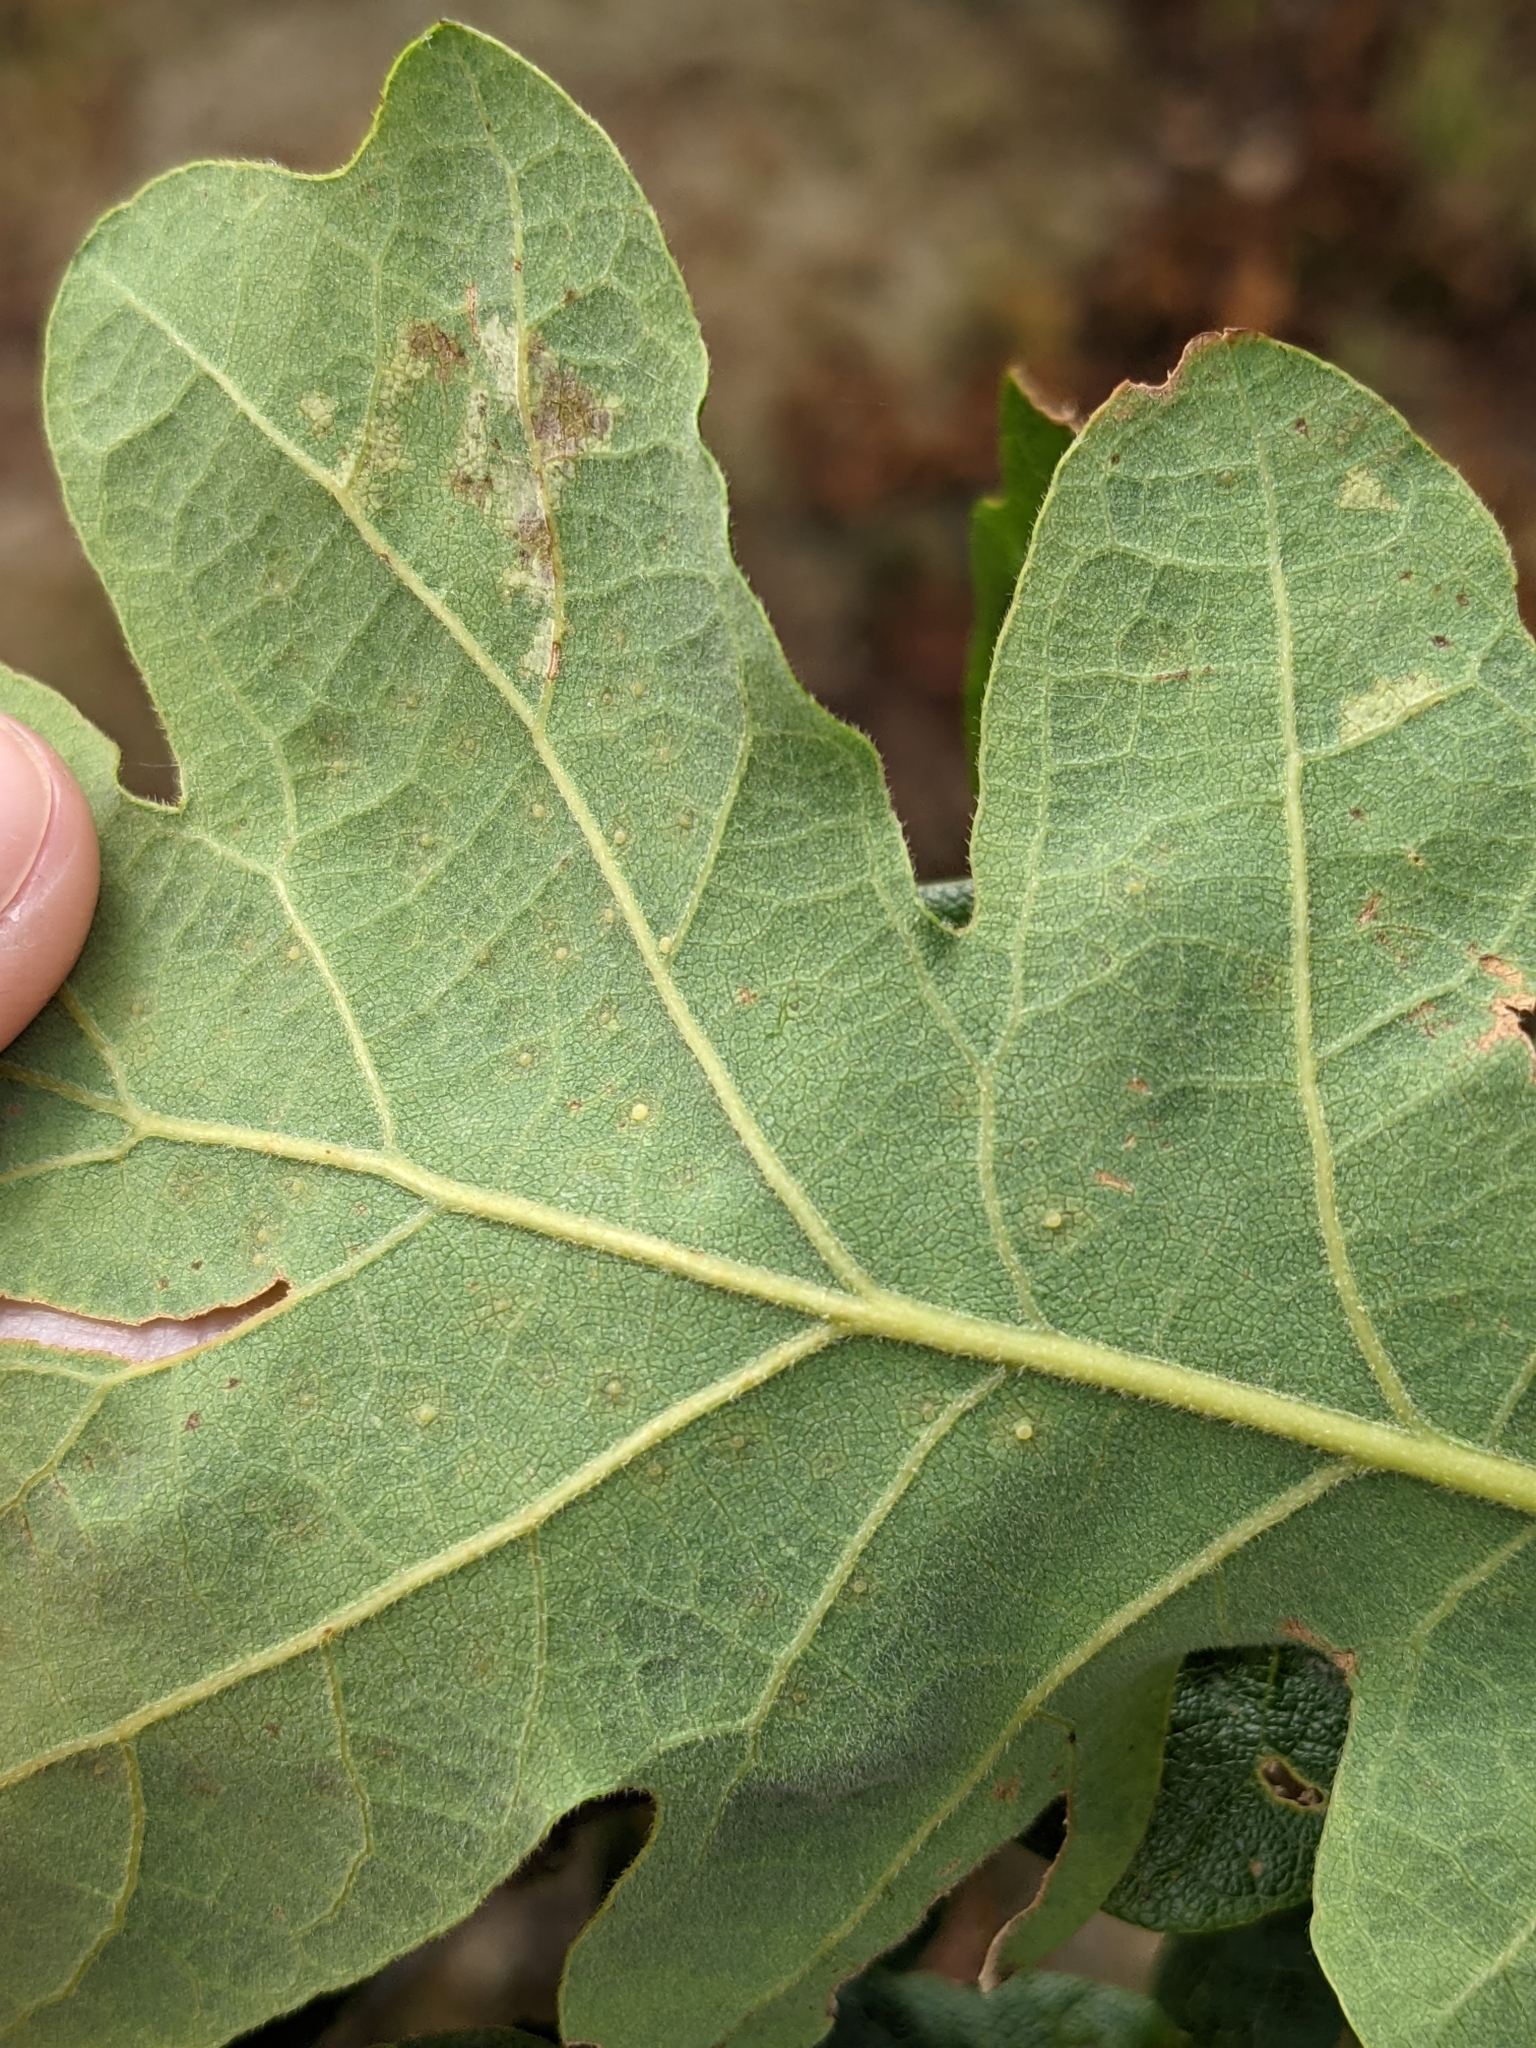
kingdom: Animalia
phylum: Arthropoda
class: Insecta
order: Hymenoptera
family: Cynipidae
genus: Neuroterus
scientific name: Neuroterus saltarius
